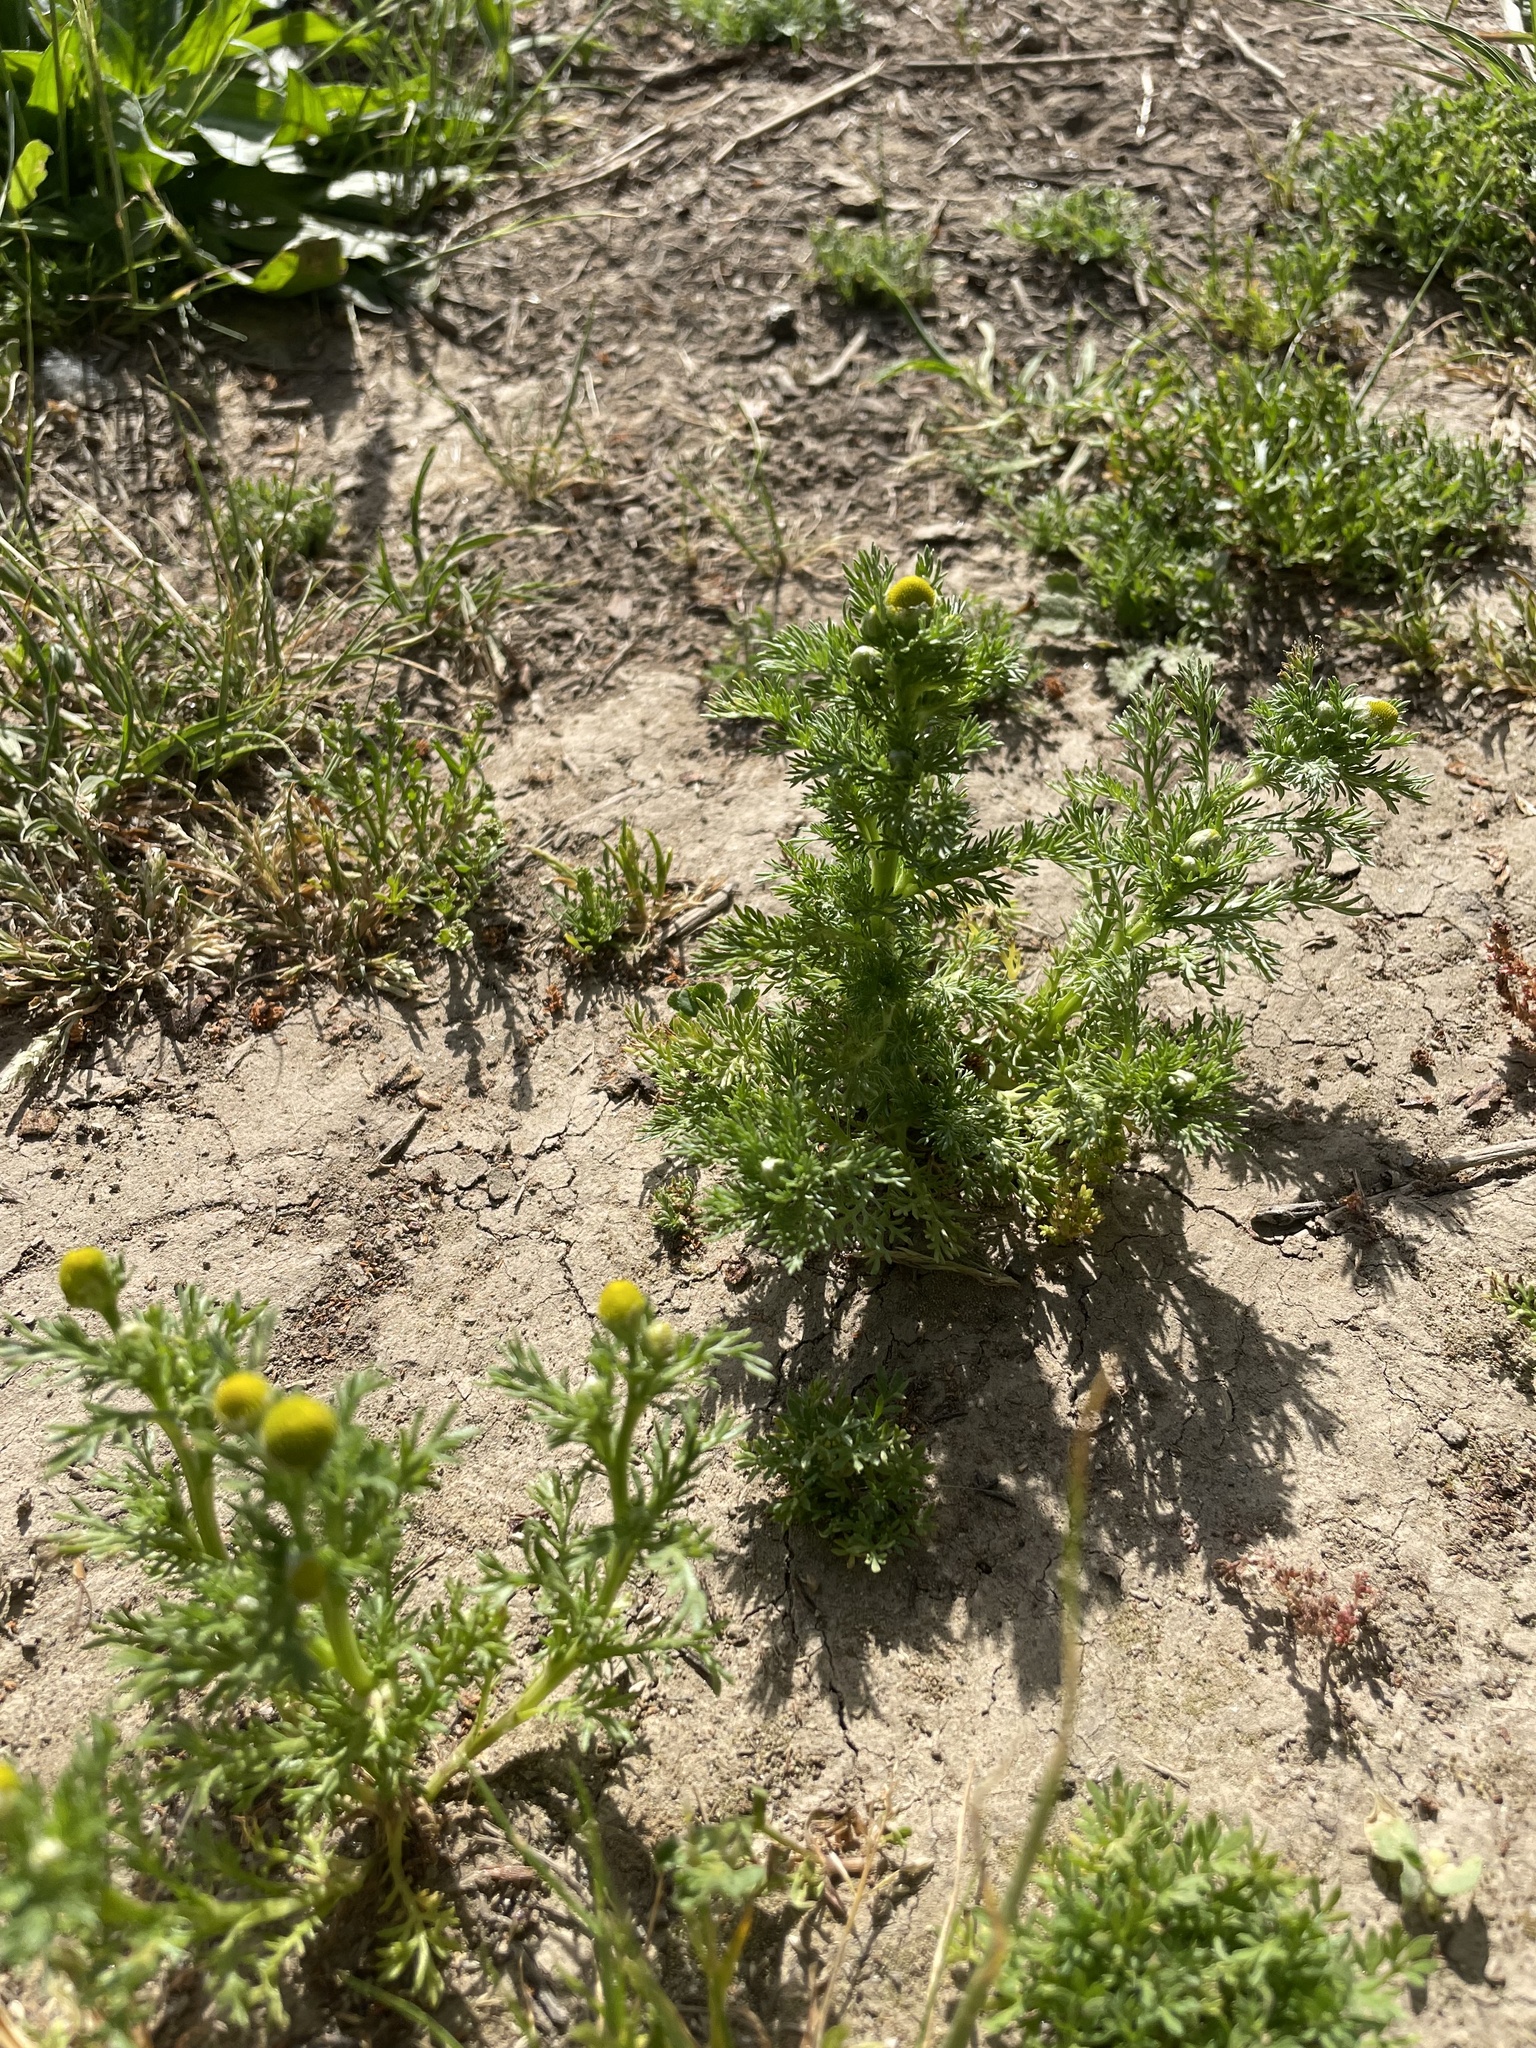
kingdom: Plantae
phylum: Tracheophyta
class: Magnoliopsida
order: Asterales
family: Asteraceae
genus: Matricaria
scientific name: Matricaria discoidea
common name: Disc mayweed
